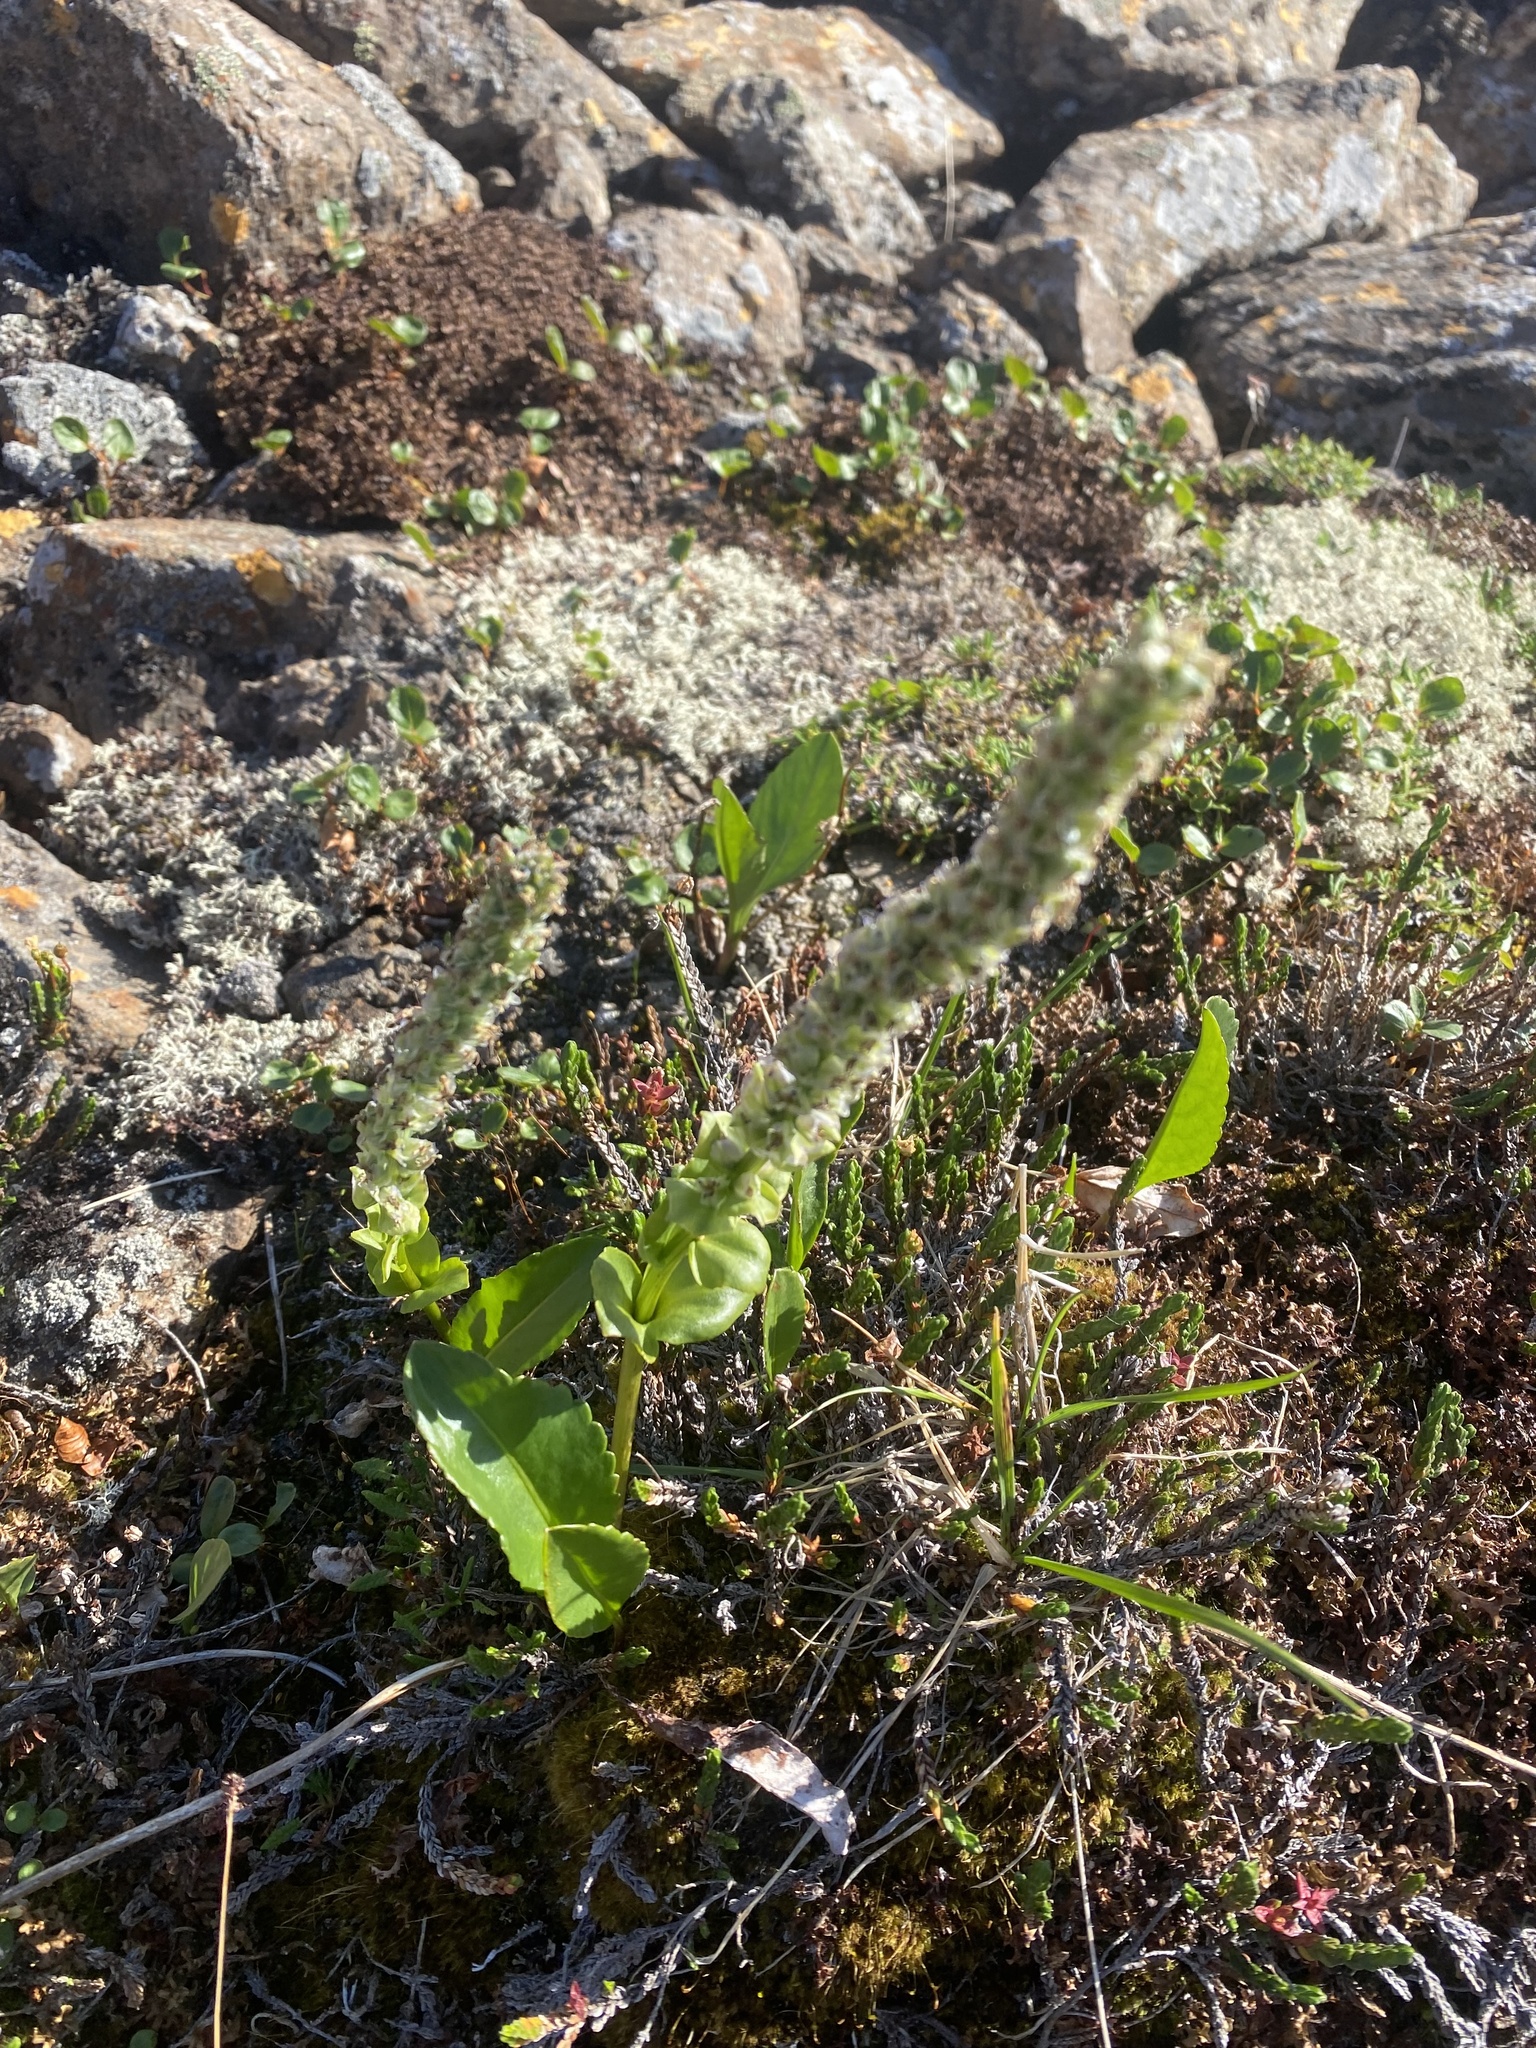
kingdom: Plantae
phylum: Tracheophyta
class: Magnoliopsida
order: Lamiales
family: Plantaginaceae
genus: Lagotis
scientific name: Lagotis glauca
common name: Glaucous weaselsnout
